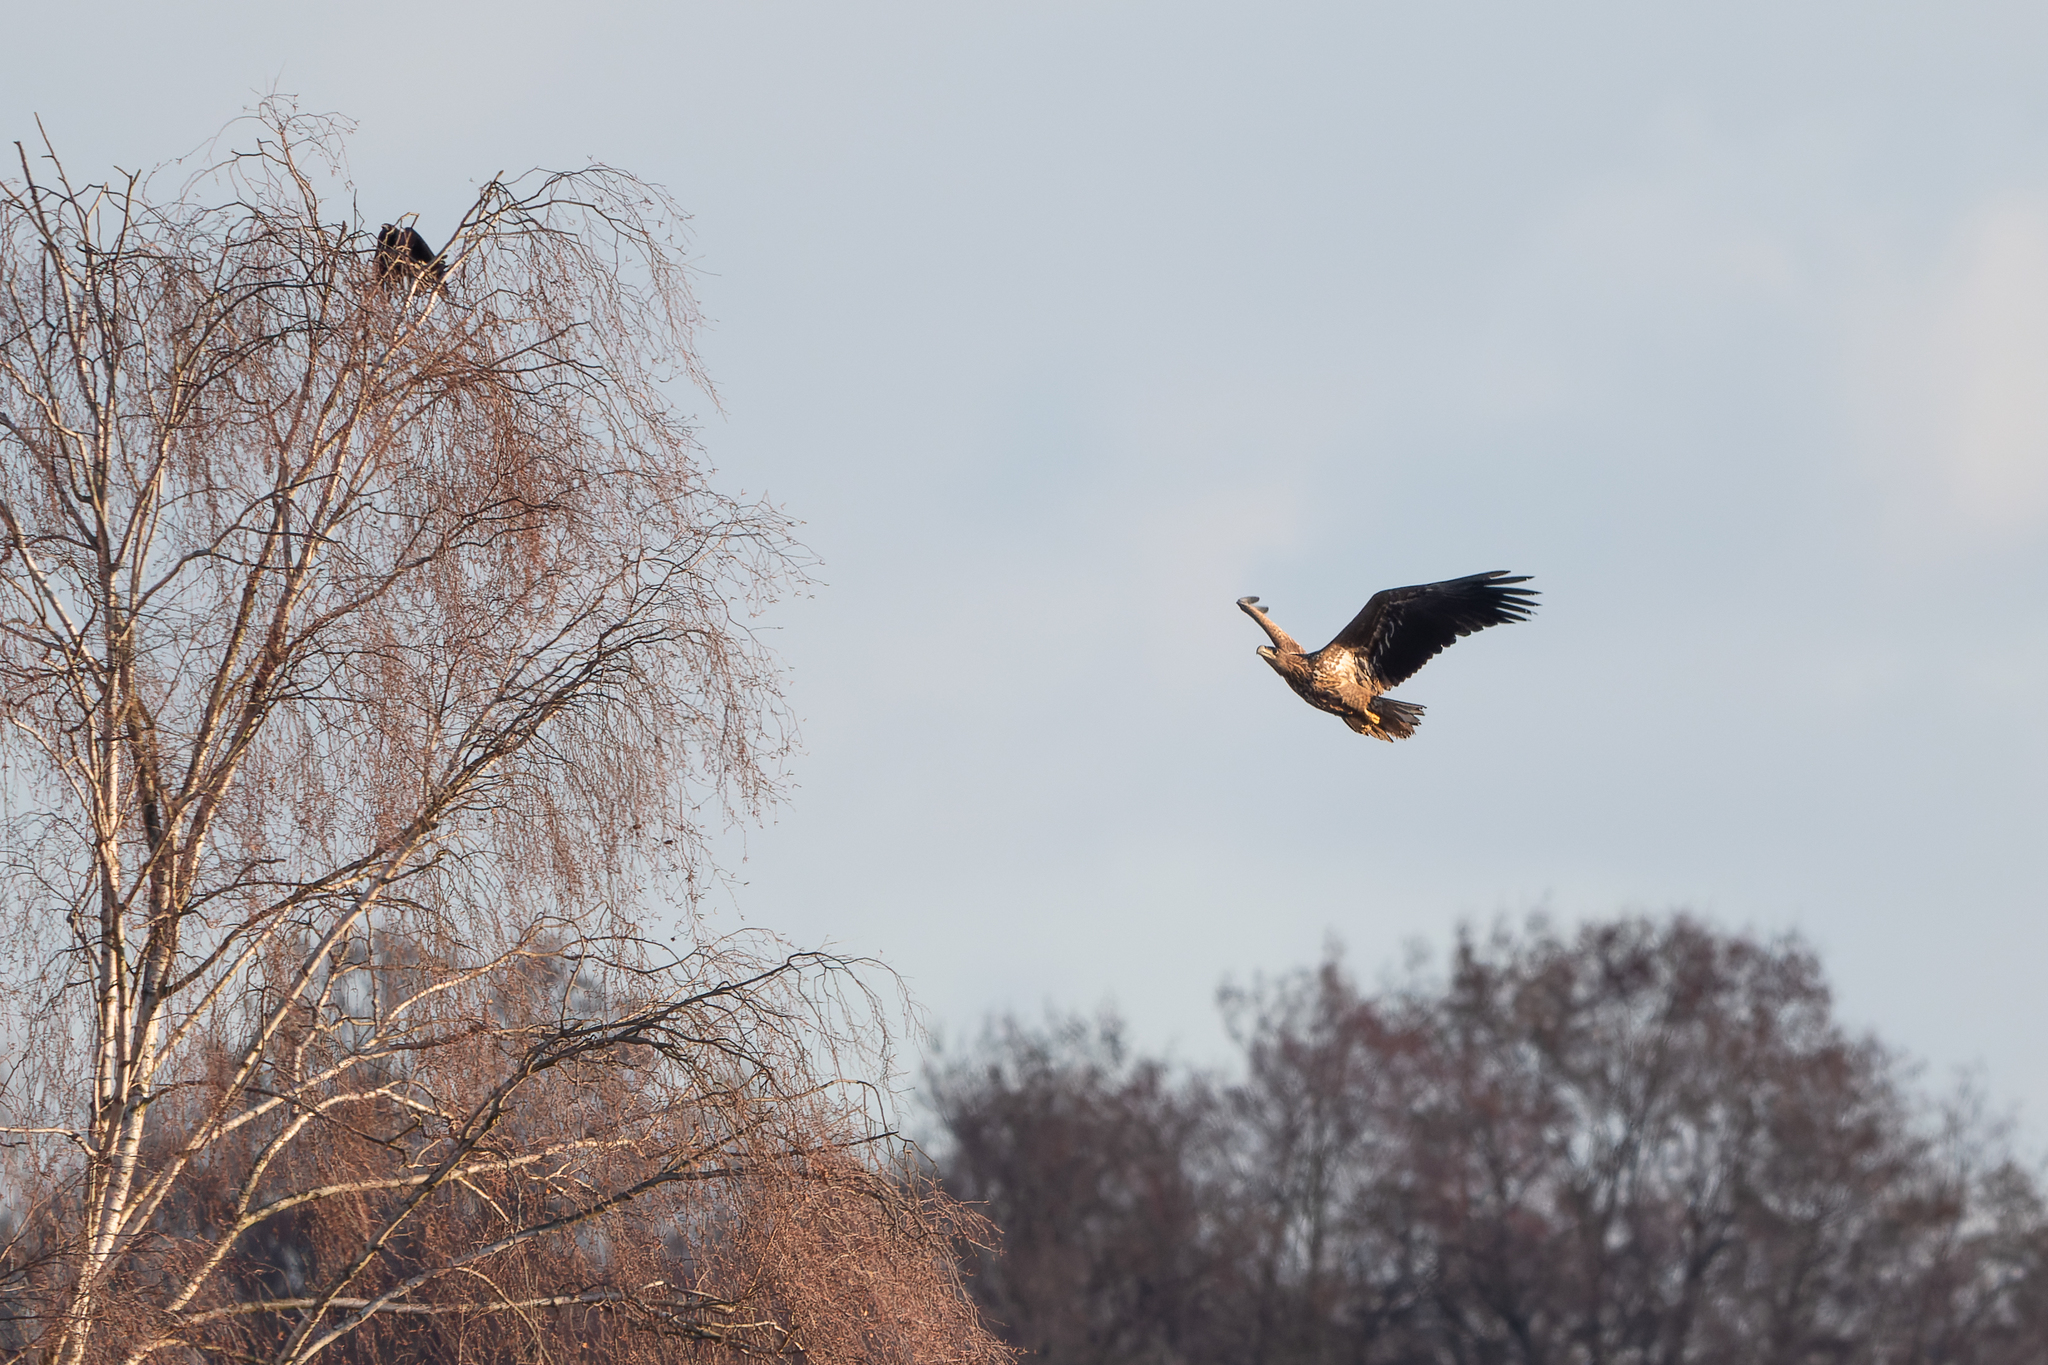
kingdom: Animalia
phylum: Chordata
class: Aves
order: Accipitriformes
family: Accipitridae
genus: Haliaeetus
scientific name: Haliaeetus albicilla
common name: White-tailed eagle
